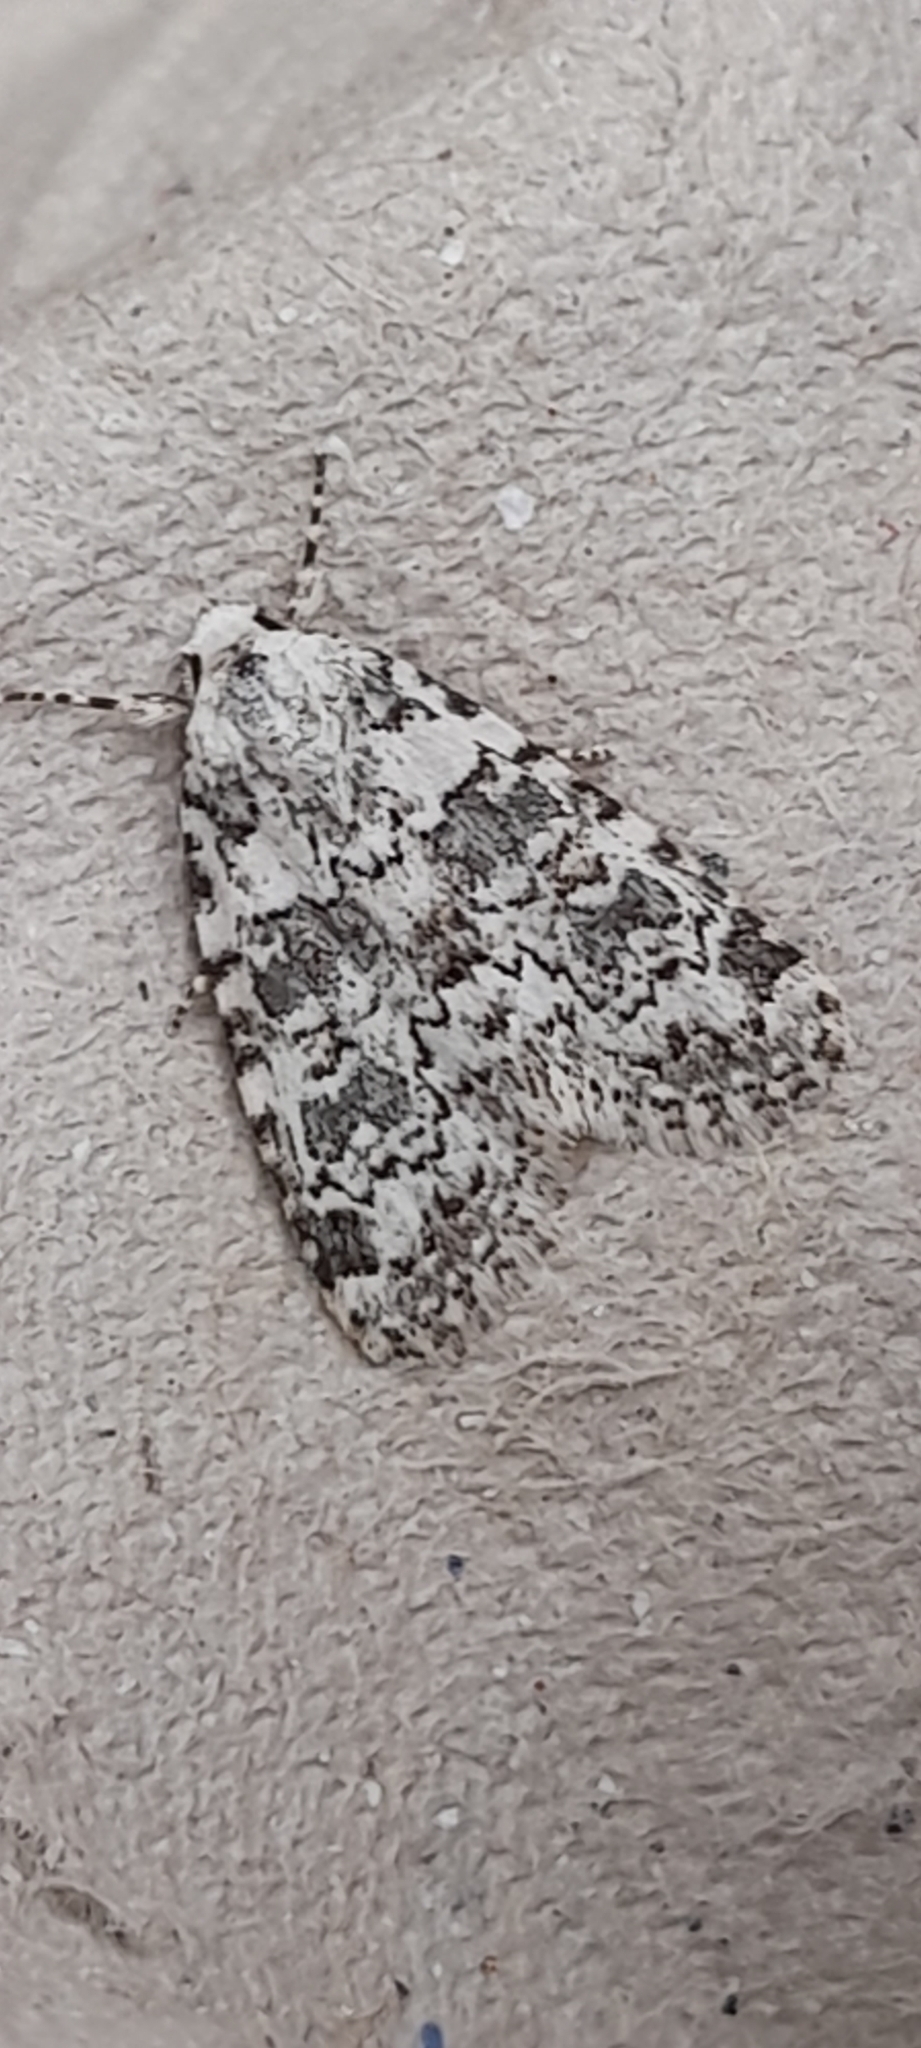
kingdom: Animalia
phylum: Arthropoda
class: Insecta
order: Lepidoptera
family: Noctuidae
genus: Bryophila
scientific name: Bryophila domestica
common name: Marbled beauty
